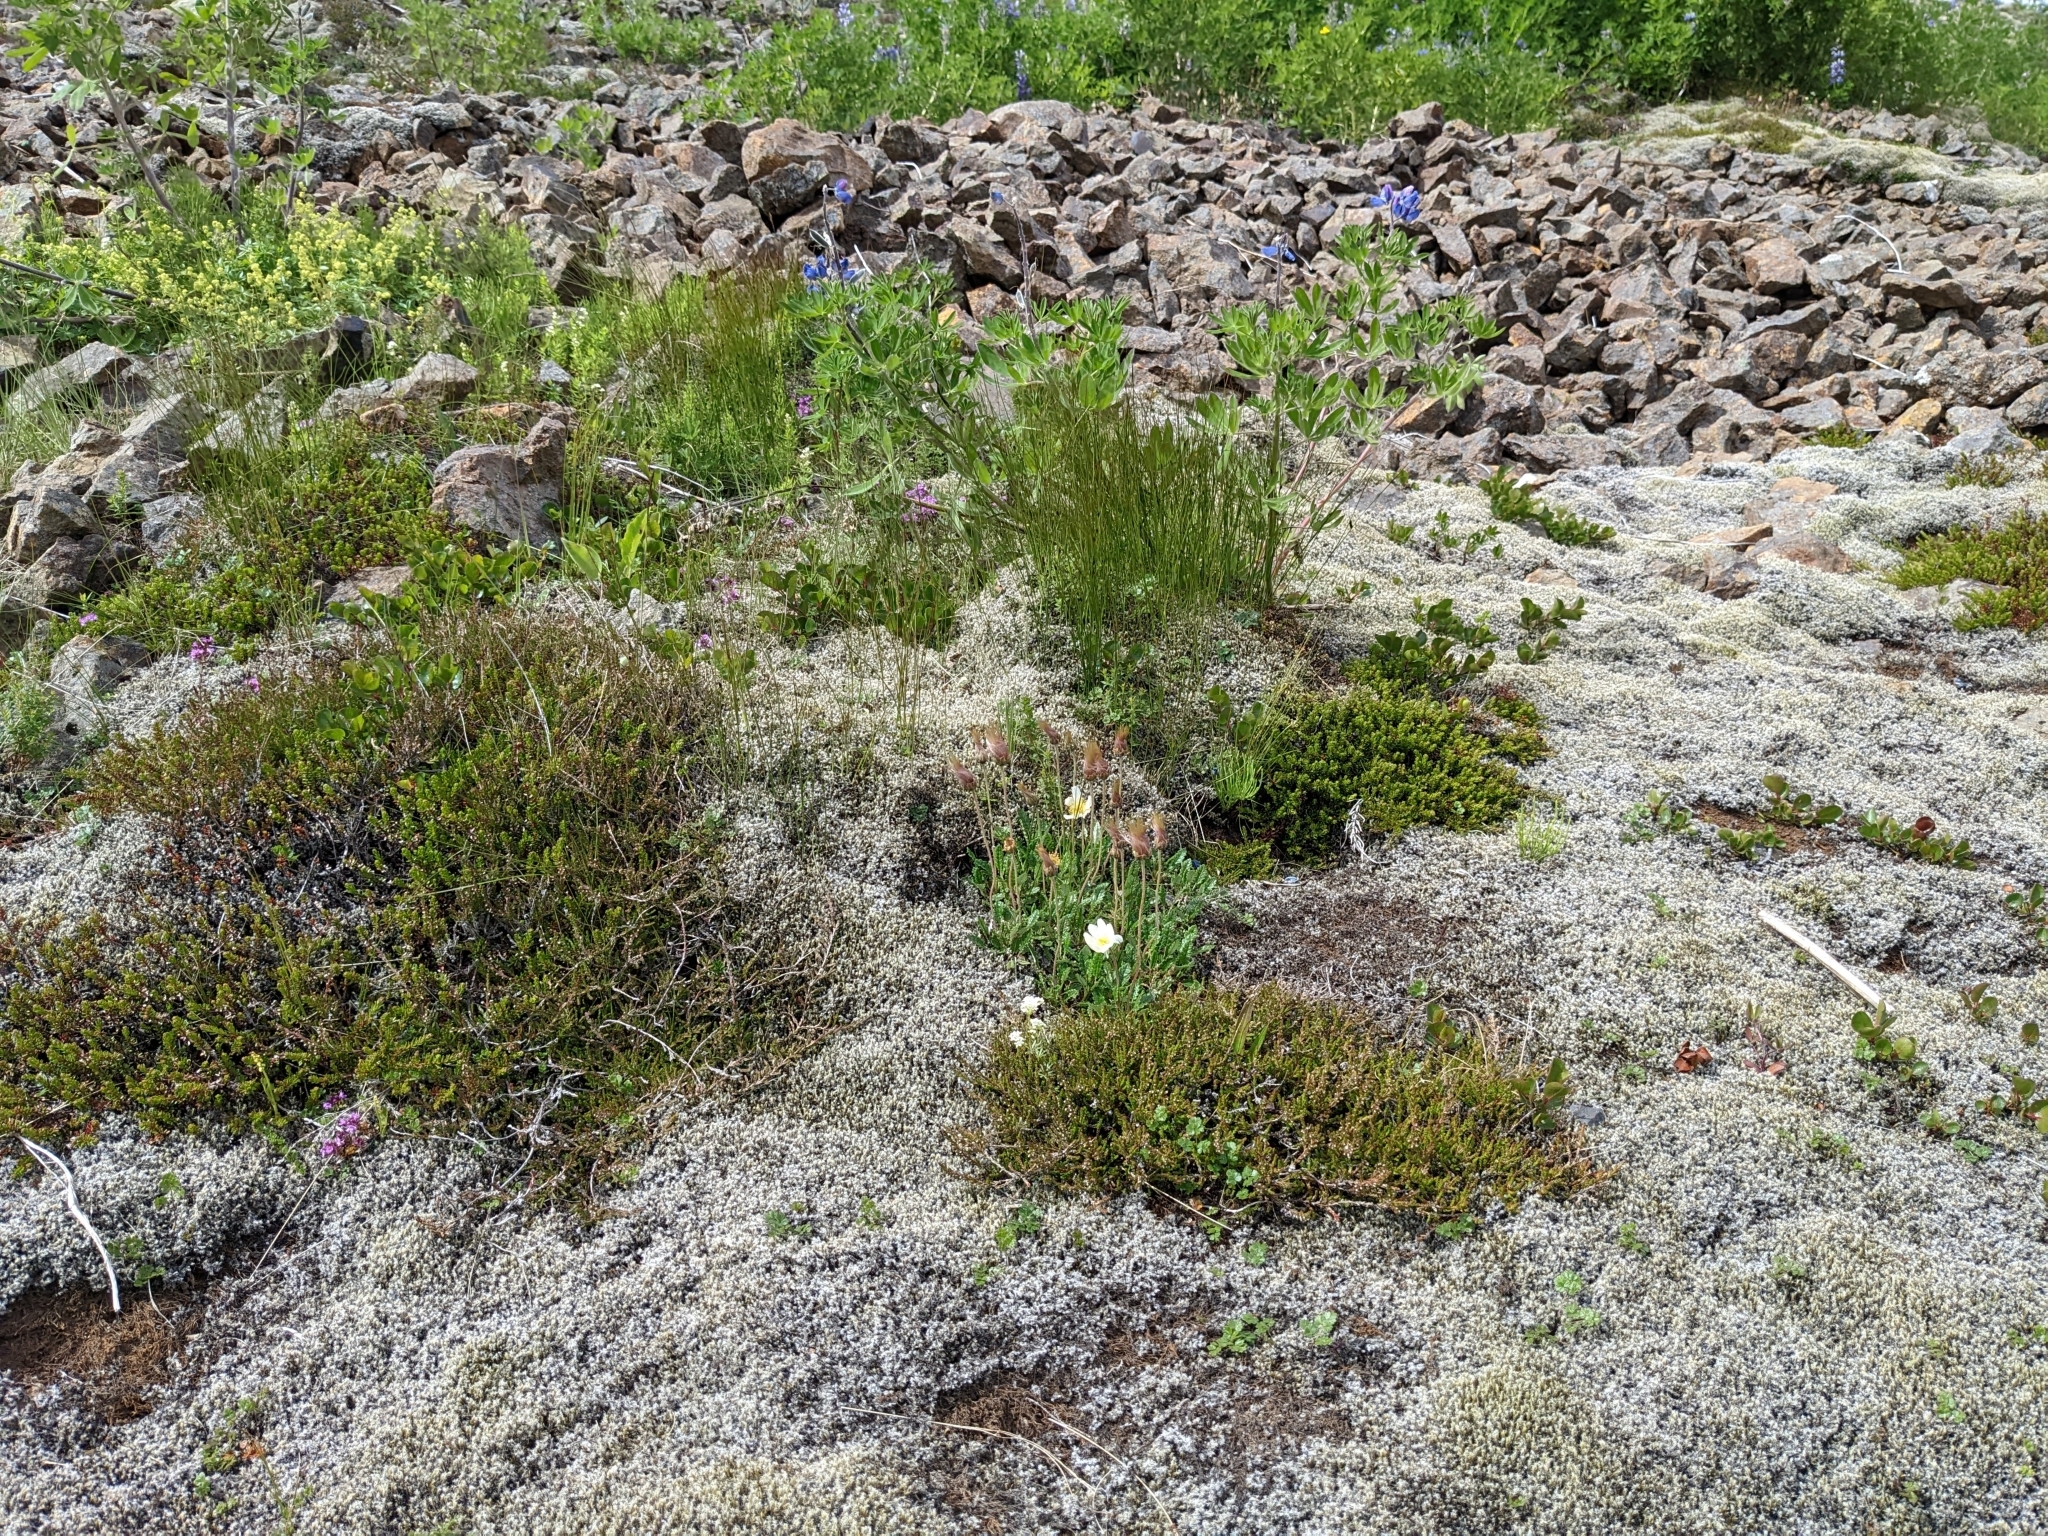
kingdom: Plantae
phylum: Tracheophyta
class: Magnoliopsida
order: Rosales
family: Rosaceae
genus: Dryas
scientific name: Dryas octopetala
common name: Eight-petal mountain-avens
